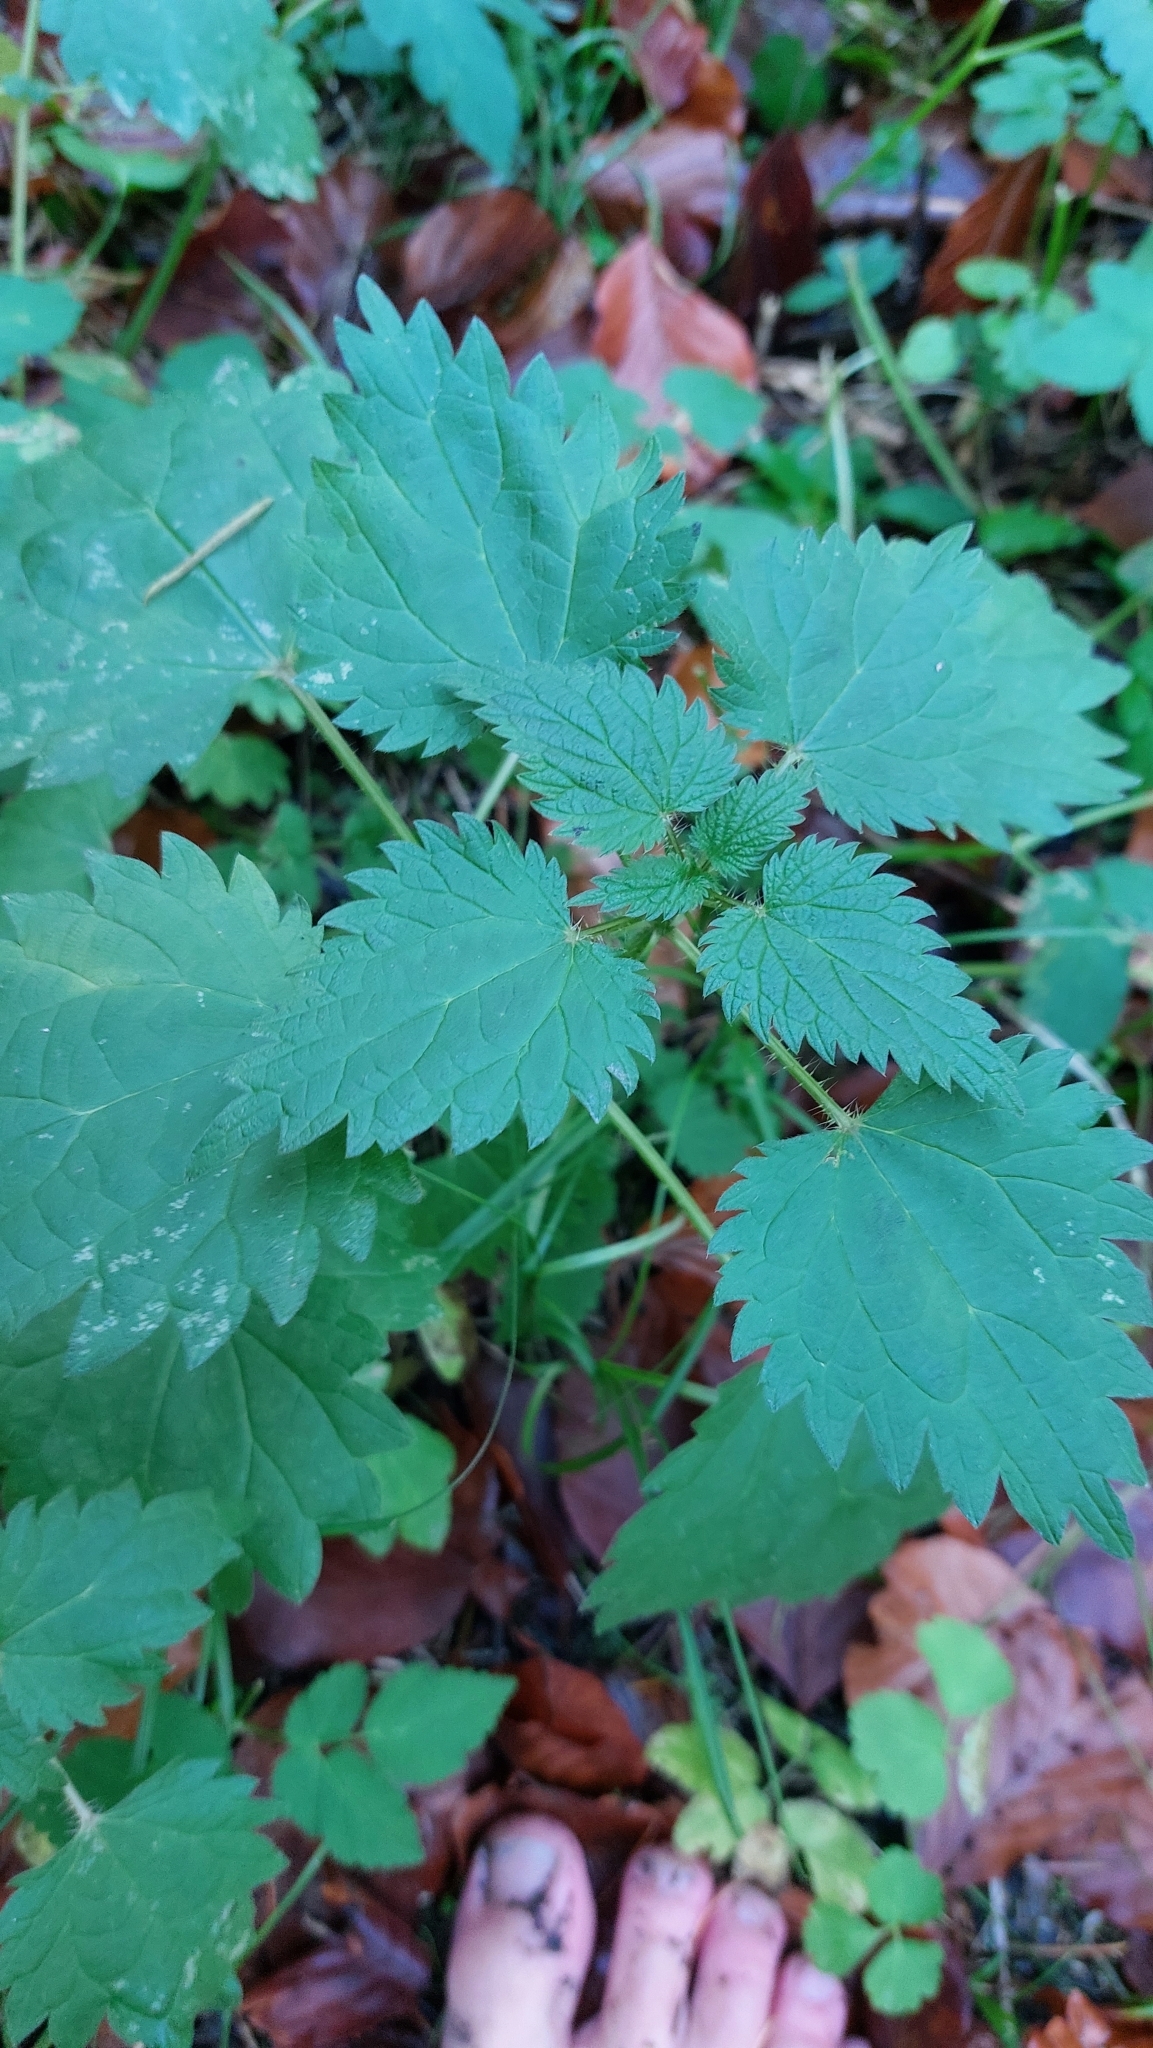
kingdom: Plantae
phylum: Tracheophyta
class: Magnoliopsida
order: Rosales
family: Urticaceae
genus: Urtica
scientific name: Urtica dioica
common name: Common nettle
